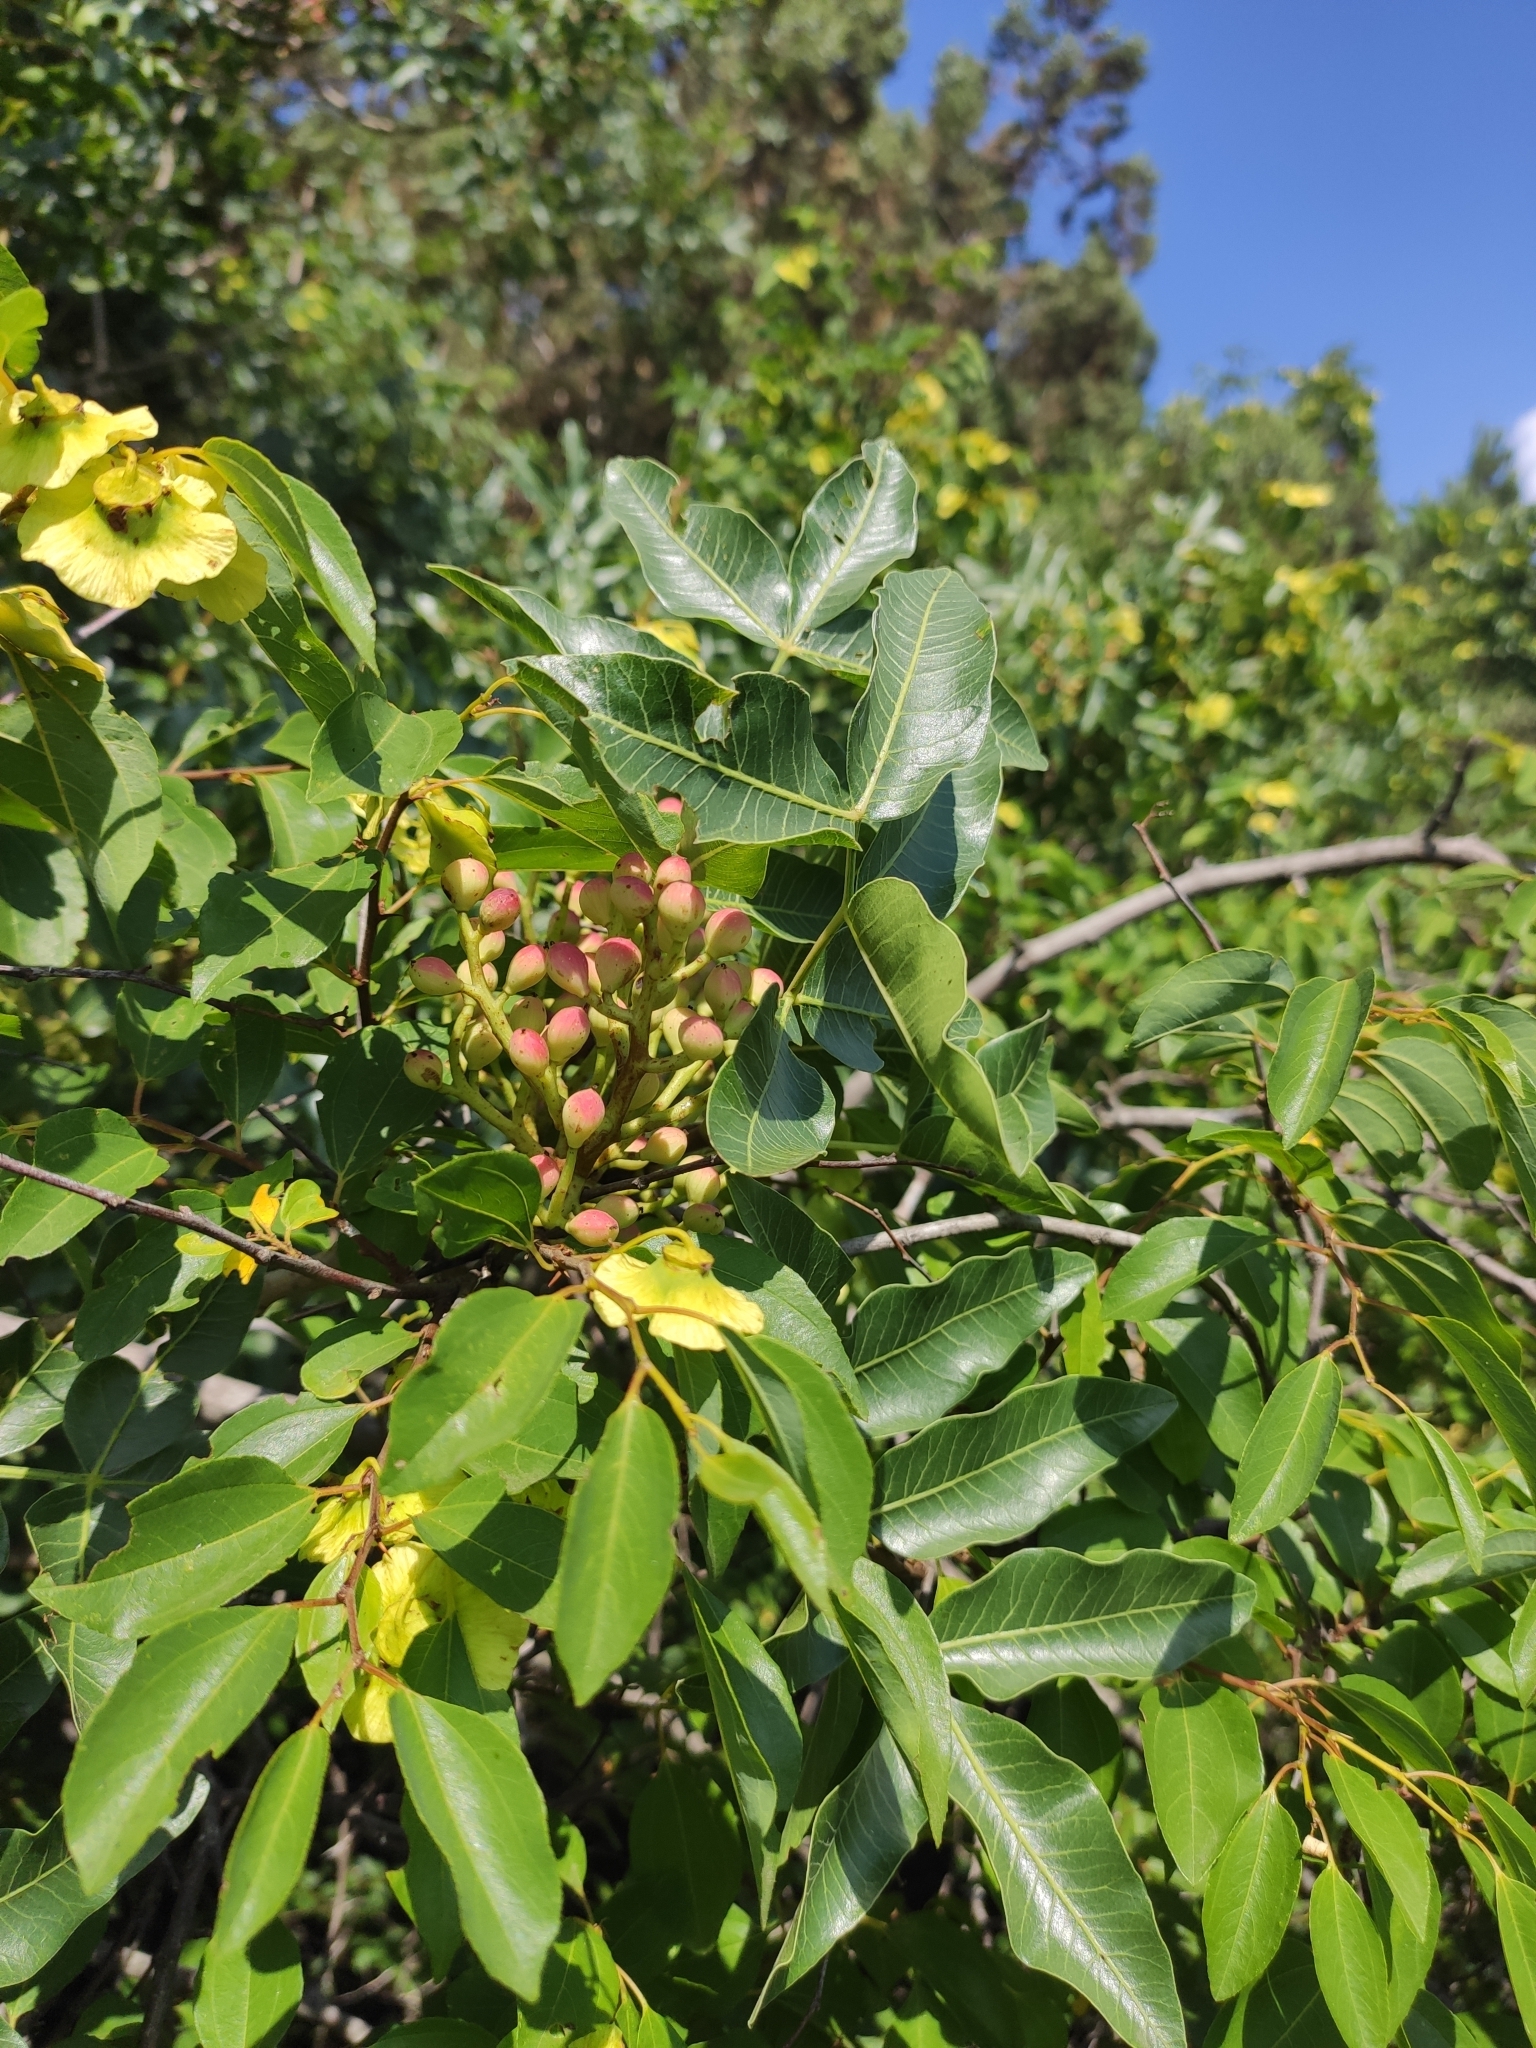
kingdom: Plantae
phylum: Tracheophyta
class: Magnoliopsida
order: Sapindales
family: Anacardiaceae
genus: Pistacia
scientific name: Pistacia atlantica
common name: Mt. atlas mastic tree
